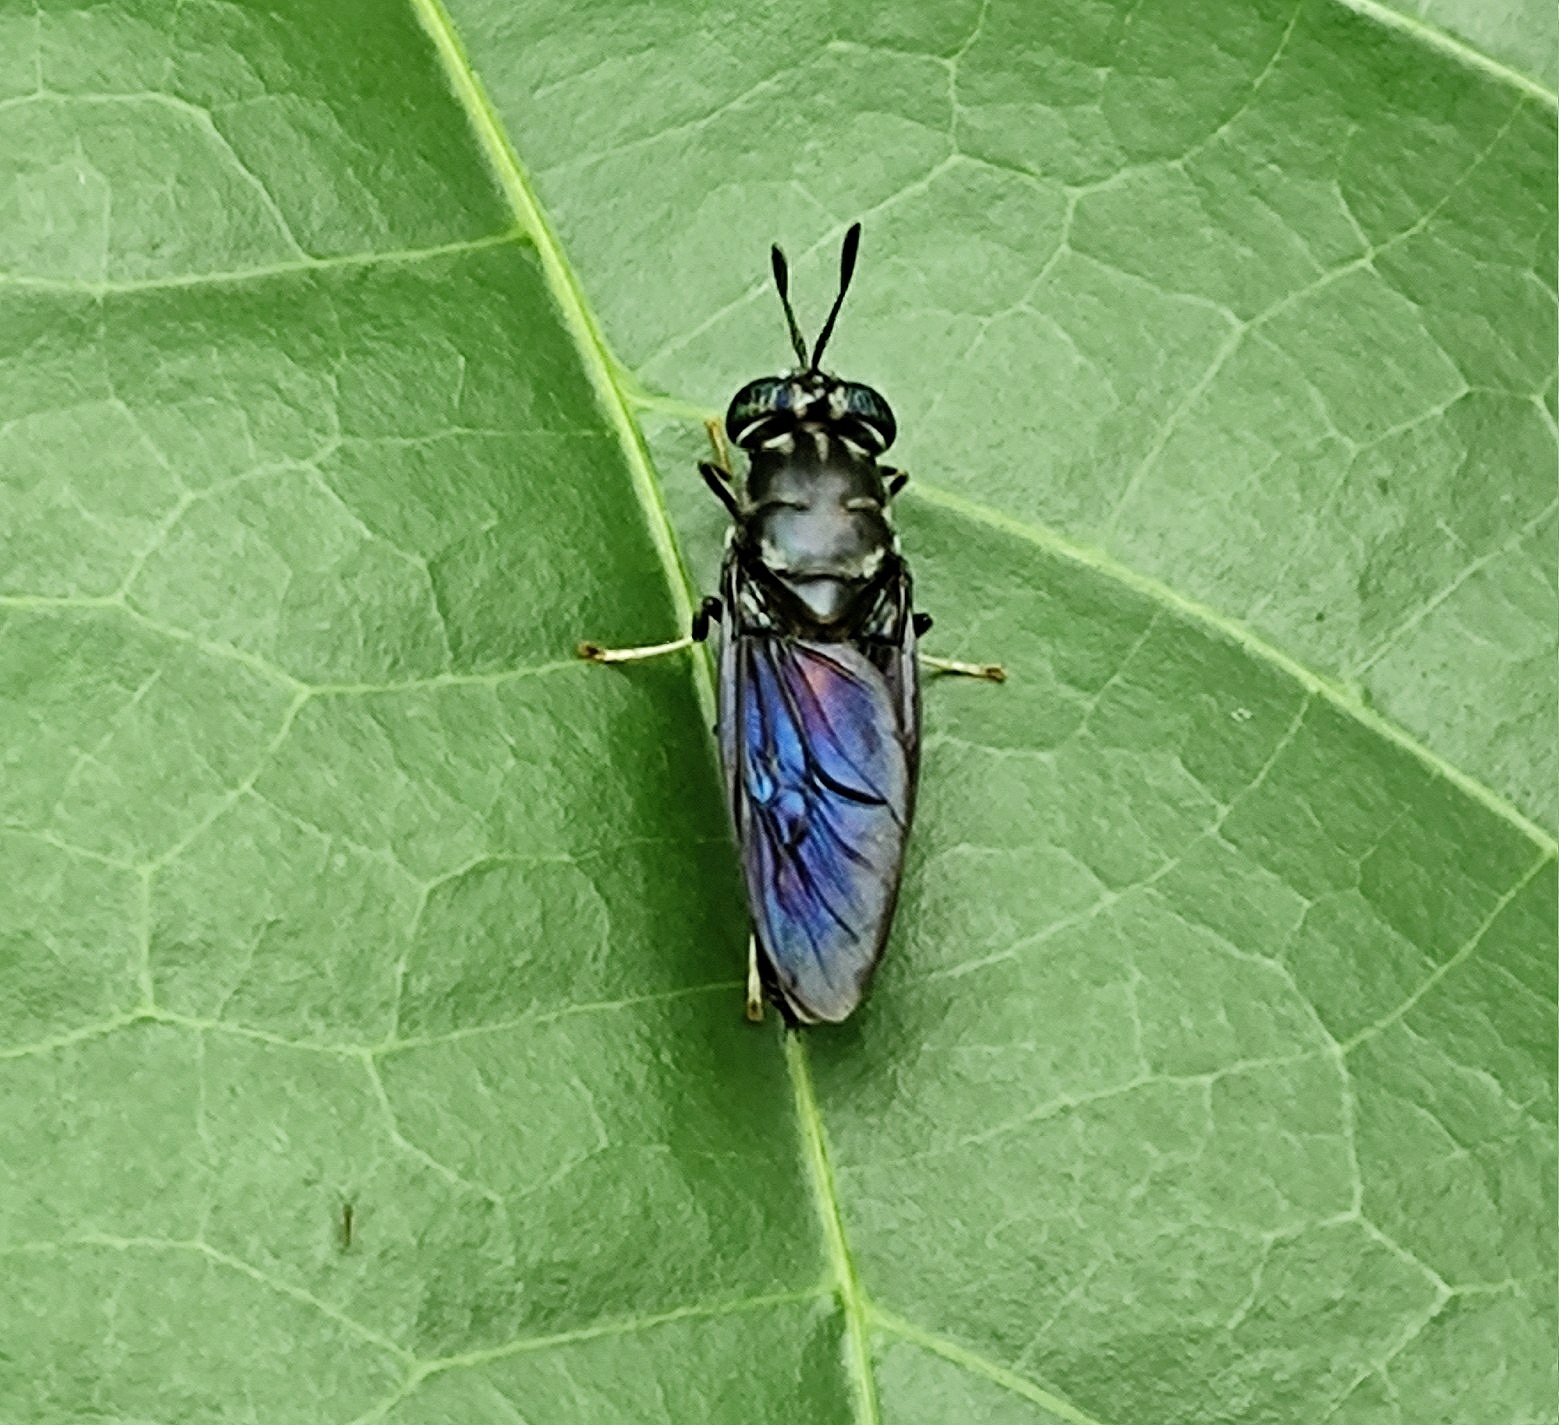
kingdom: Animalia
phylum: Arthropoda
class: Insecta
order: Diptera
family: Stratiomyidae
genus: Hermetia
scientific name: Hermetia illucens
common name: Black soldier fly
